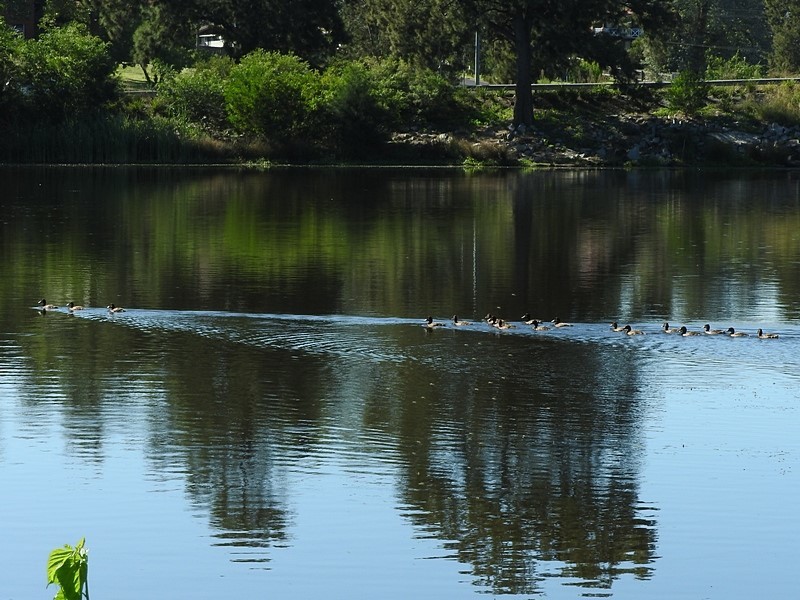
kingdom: Animalia
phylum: Chordata
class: Aves
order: Anseriformes
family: Anatidae
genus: Aythya
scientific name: Aythya australis
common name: Hardhead
